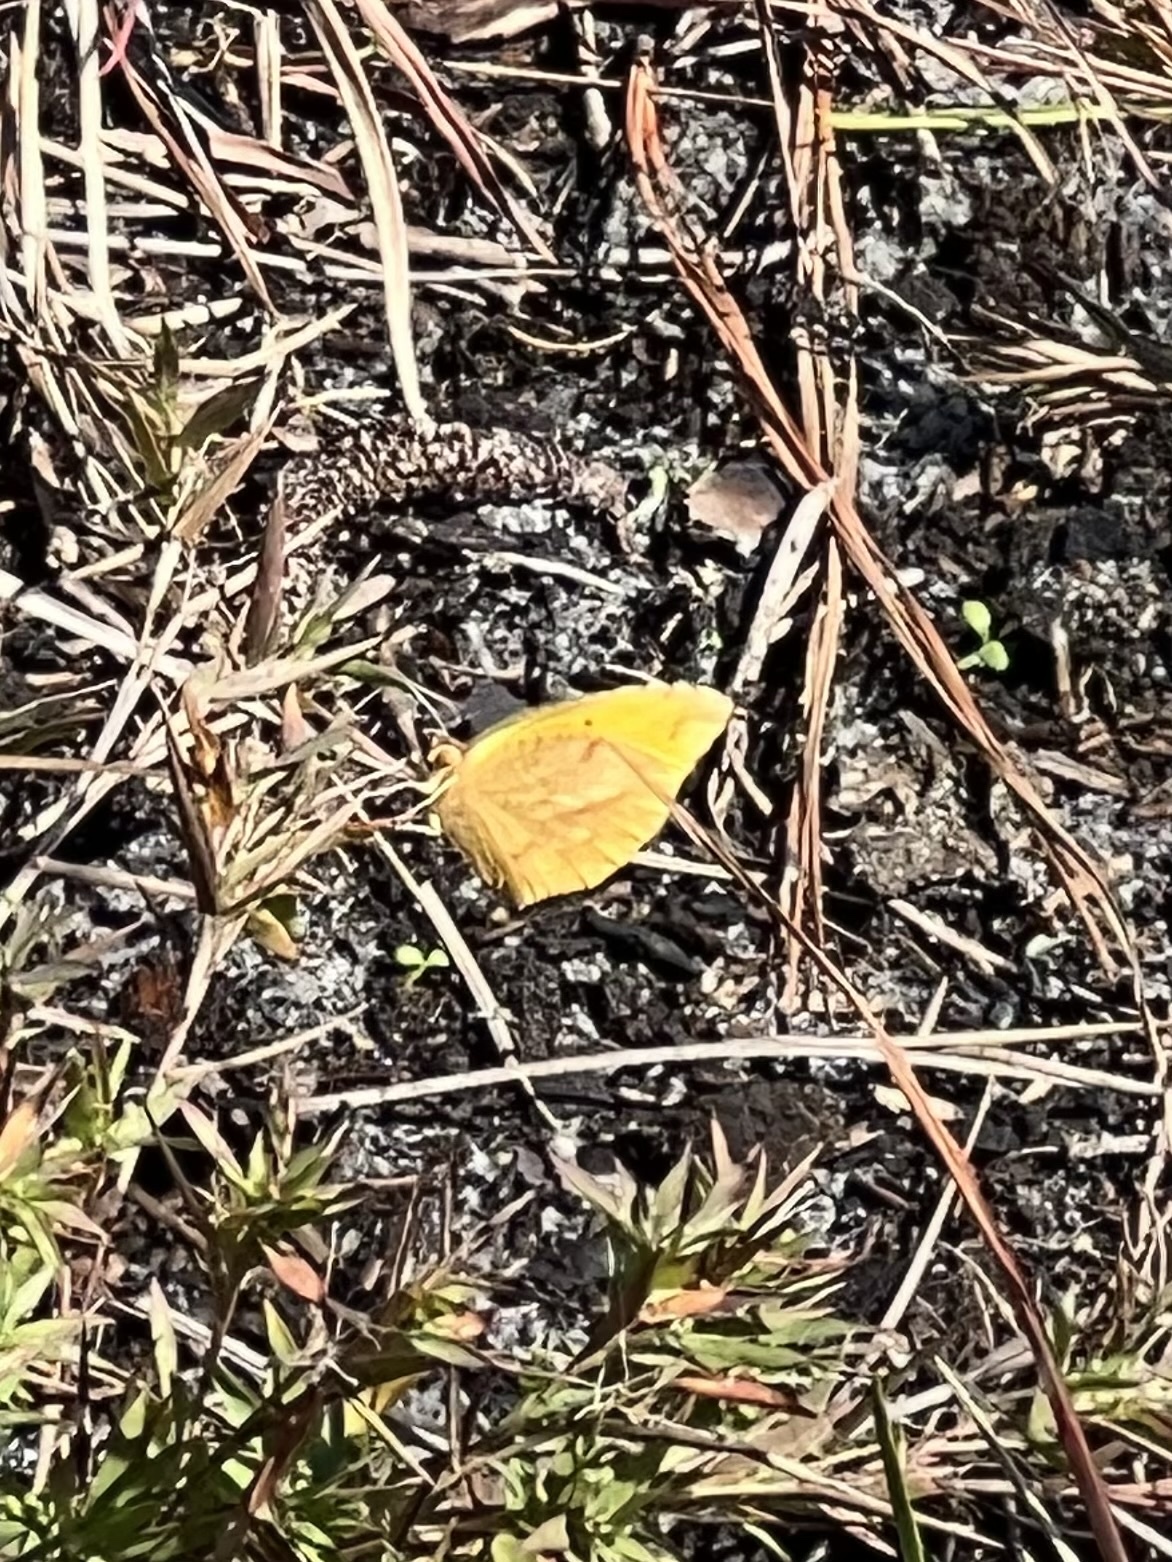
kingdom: Animalia
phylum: Arthropoda
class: Insecta
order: Lepidoptera
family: Pieridae
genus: Abaeis
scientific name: Abaeis nicippe
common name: Sleepy orange
